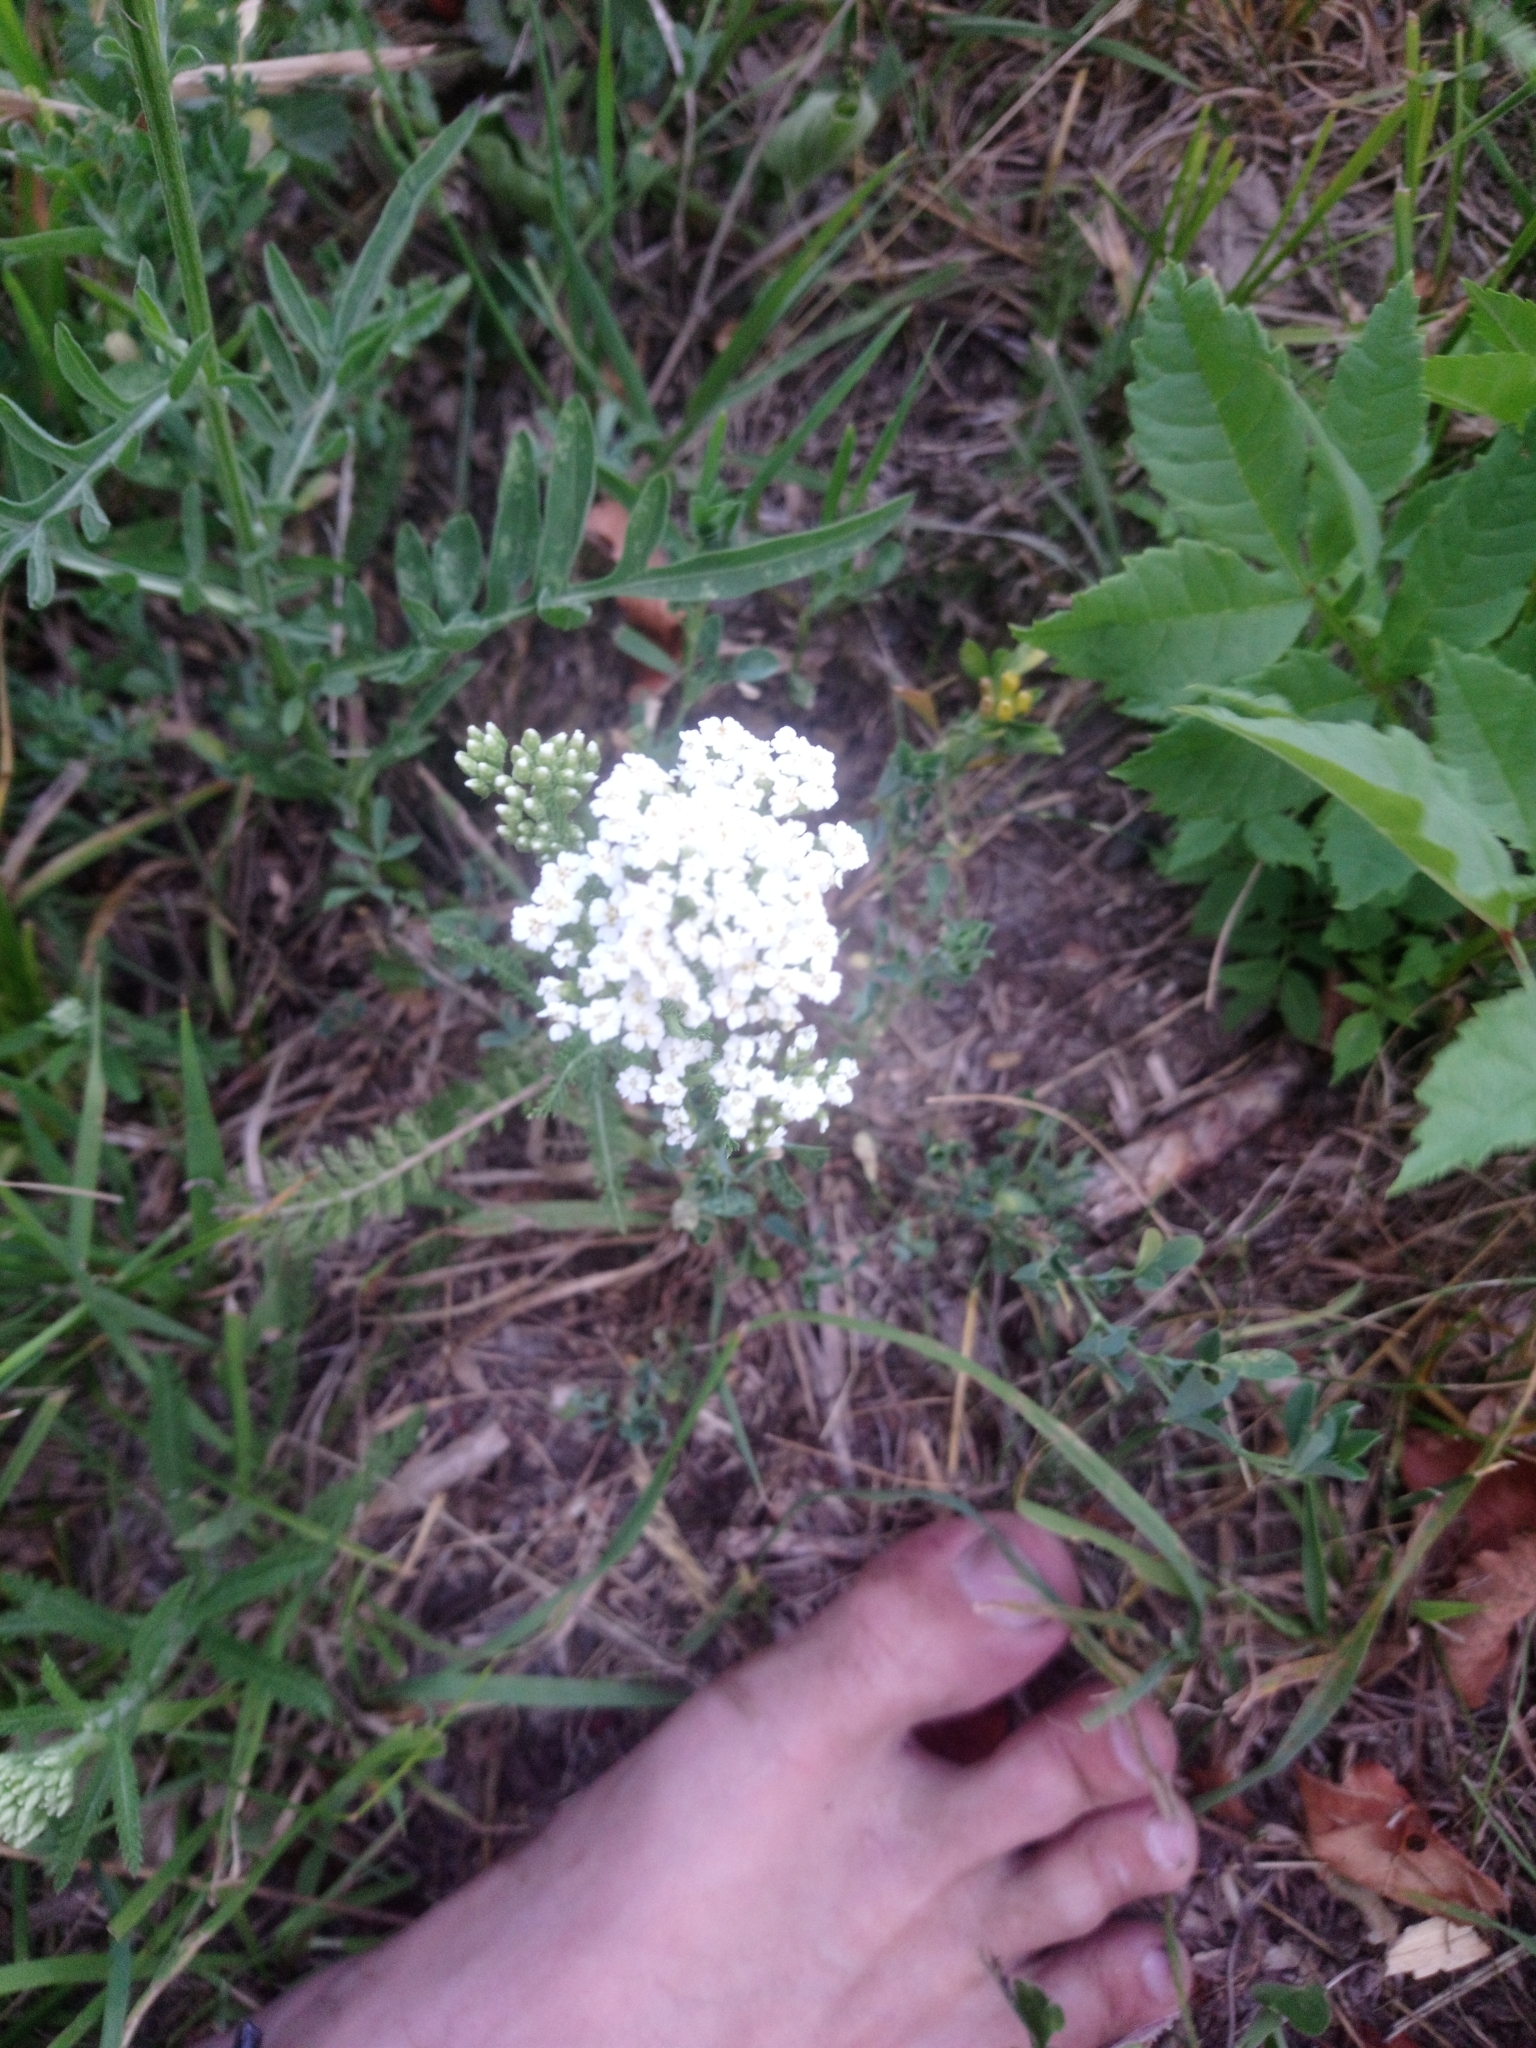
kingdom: Plantae
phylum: Tracheophyta
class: Magnoliopsida
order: Asterales
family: Asteraceae
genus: Achillea
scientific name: Achillea millefolium
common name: Yarrow
